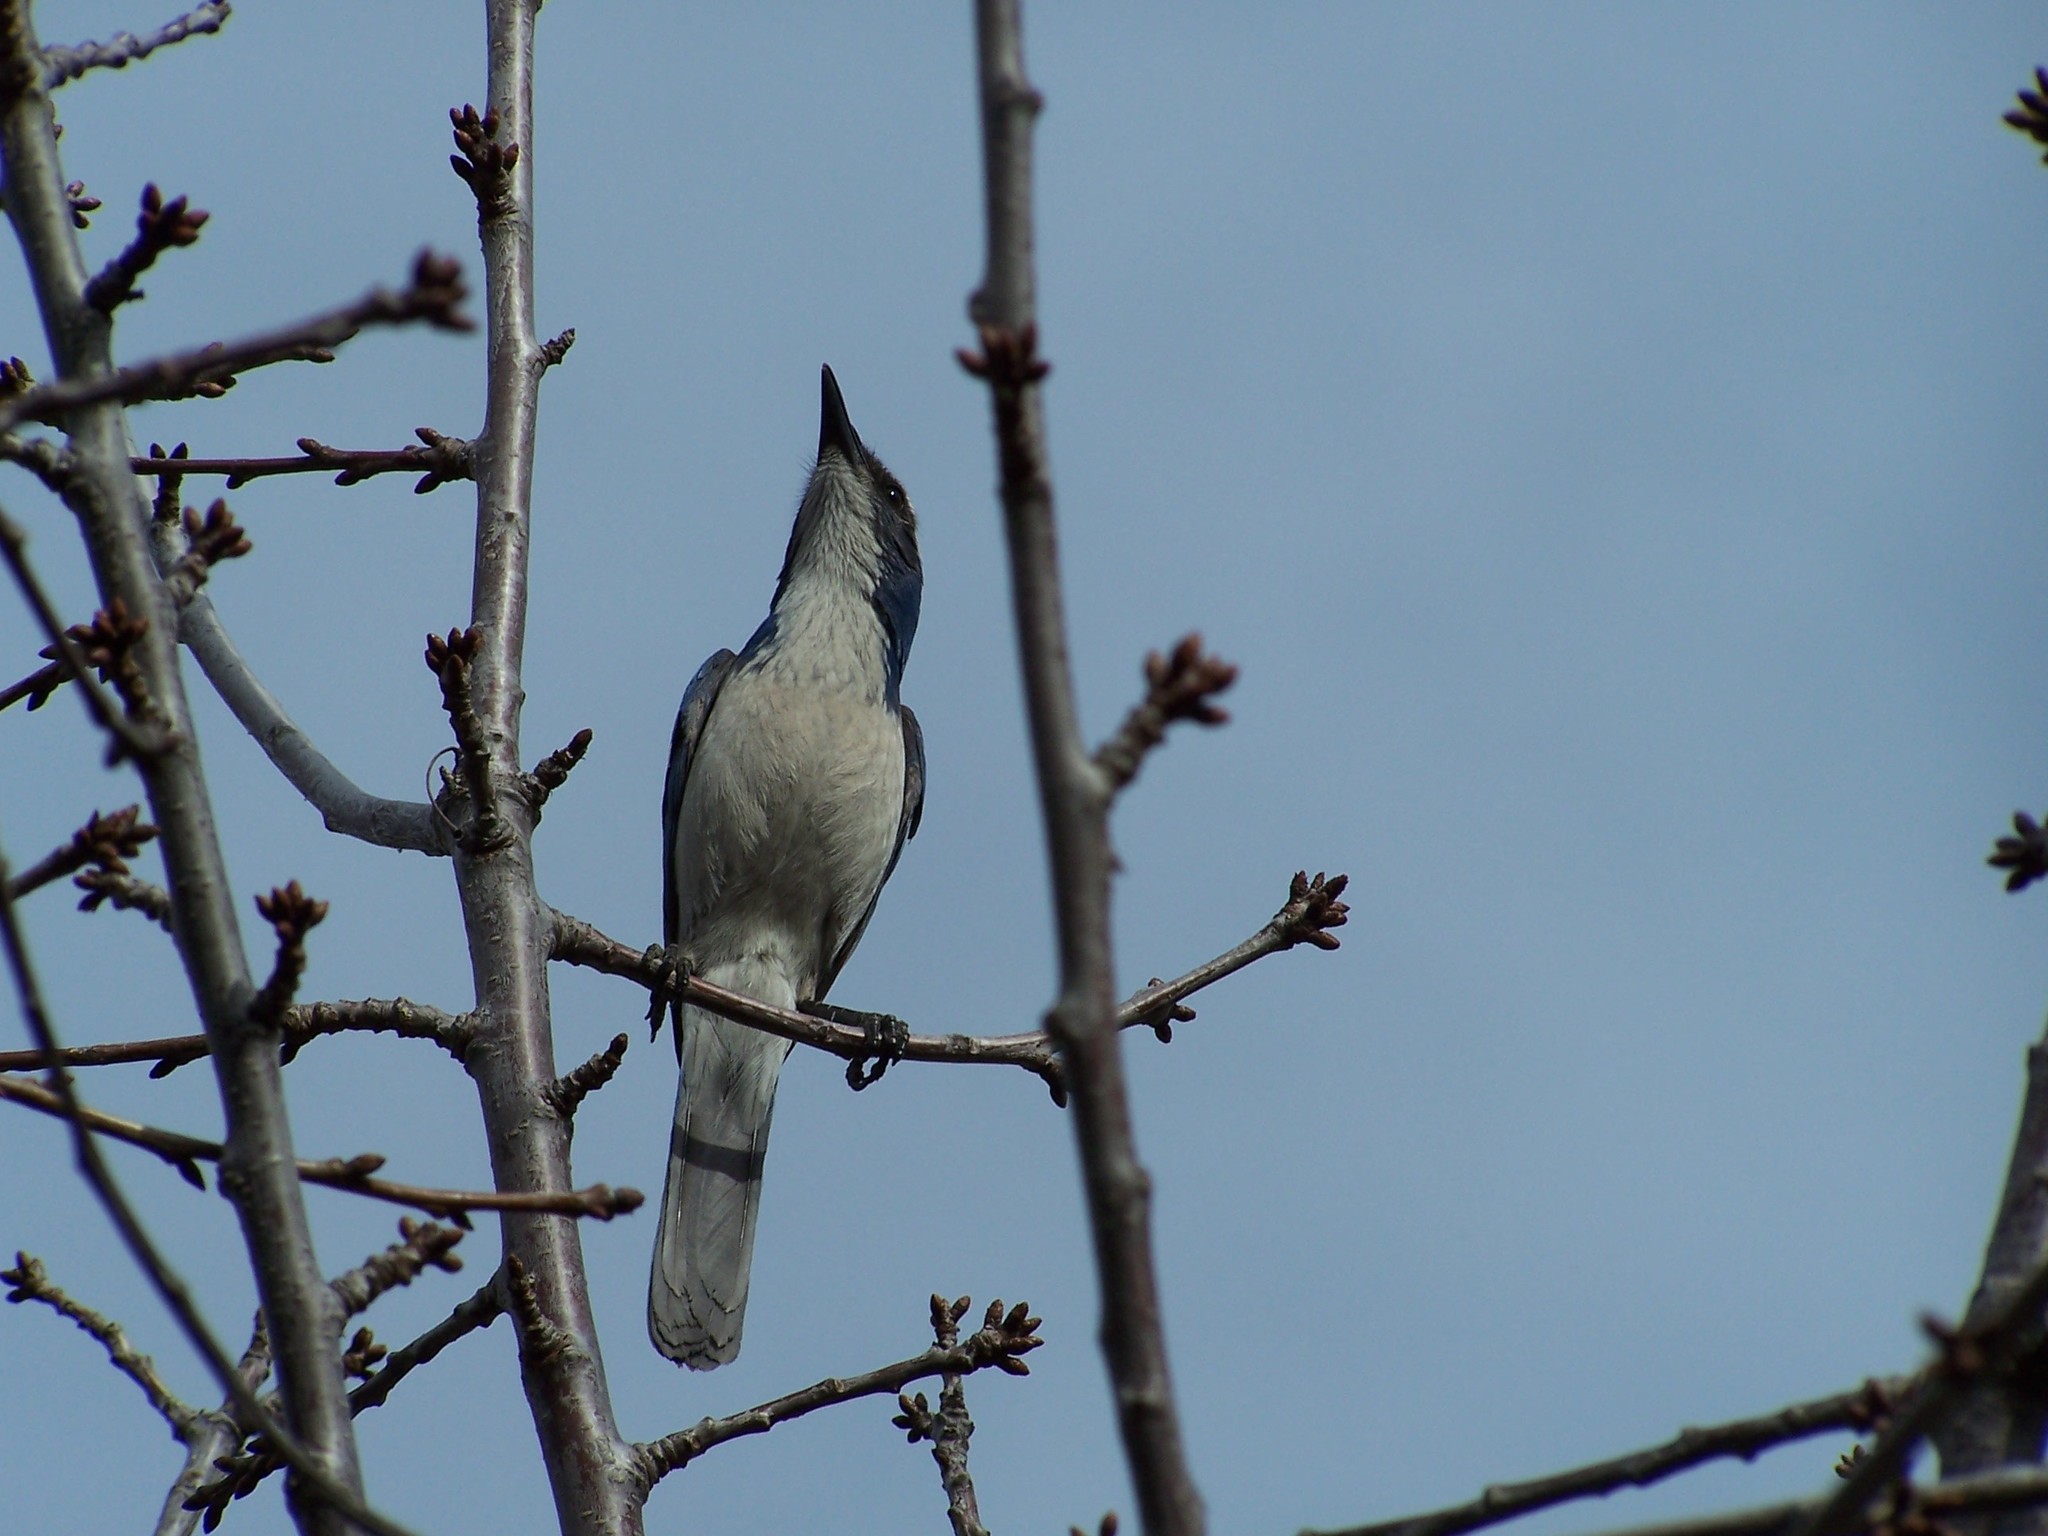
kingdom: Animalia
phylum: Chordata
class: Aves
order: Passeriformes
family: Corvidae
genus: Aphelocoma
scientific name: Aphelocoma californica
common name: California scrub-jay
